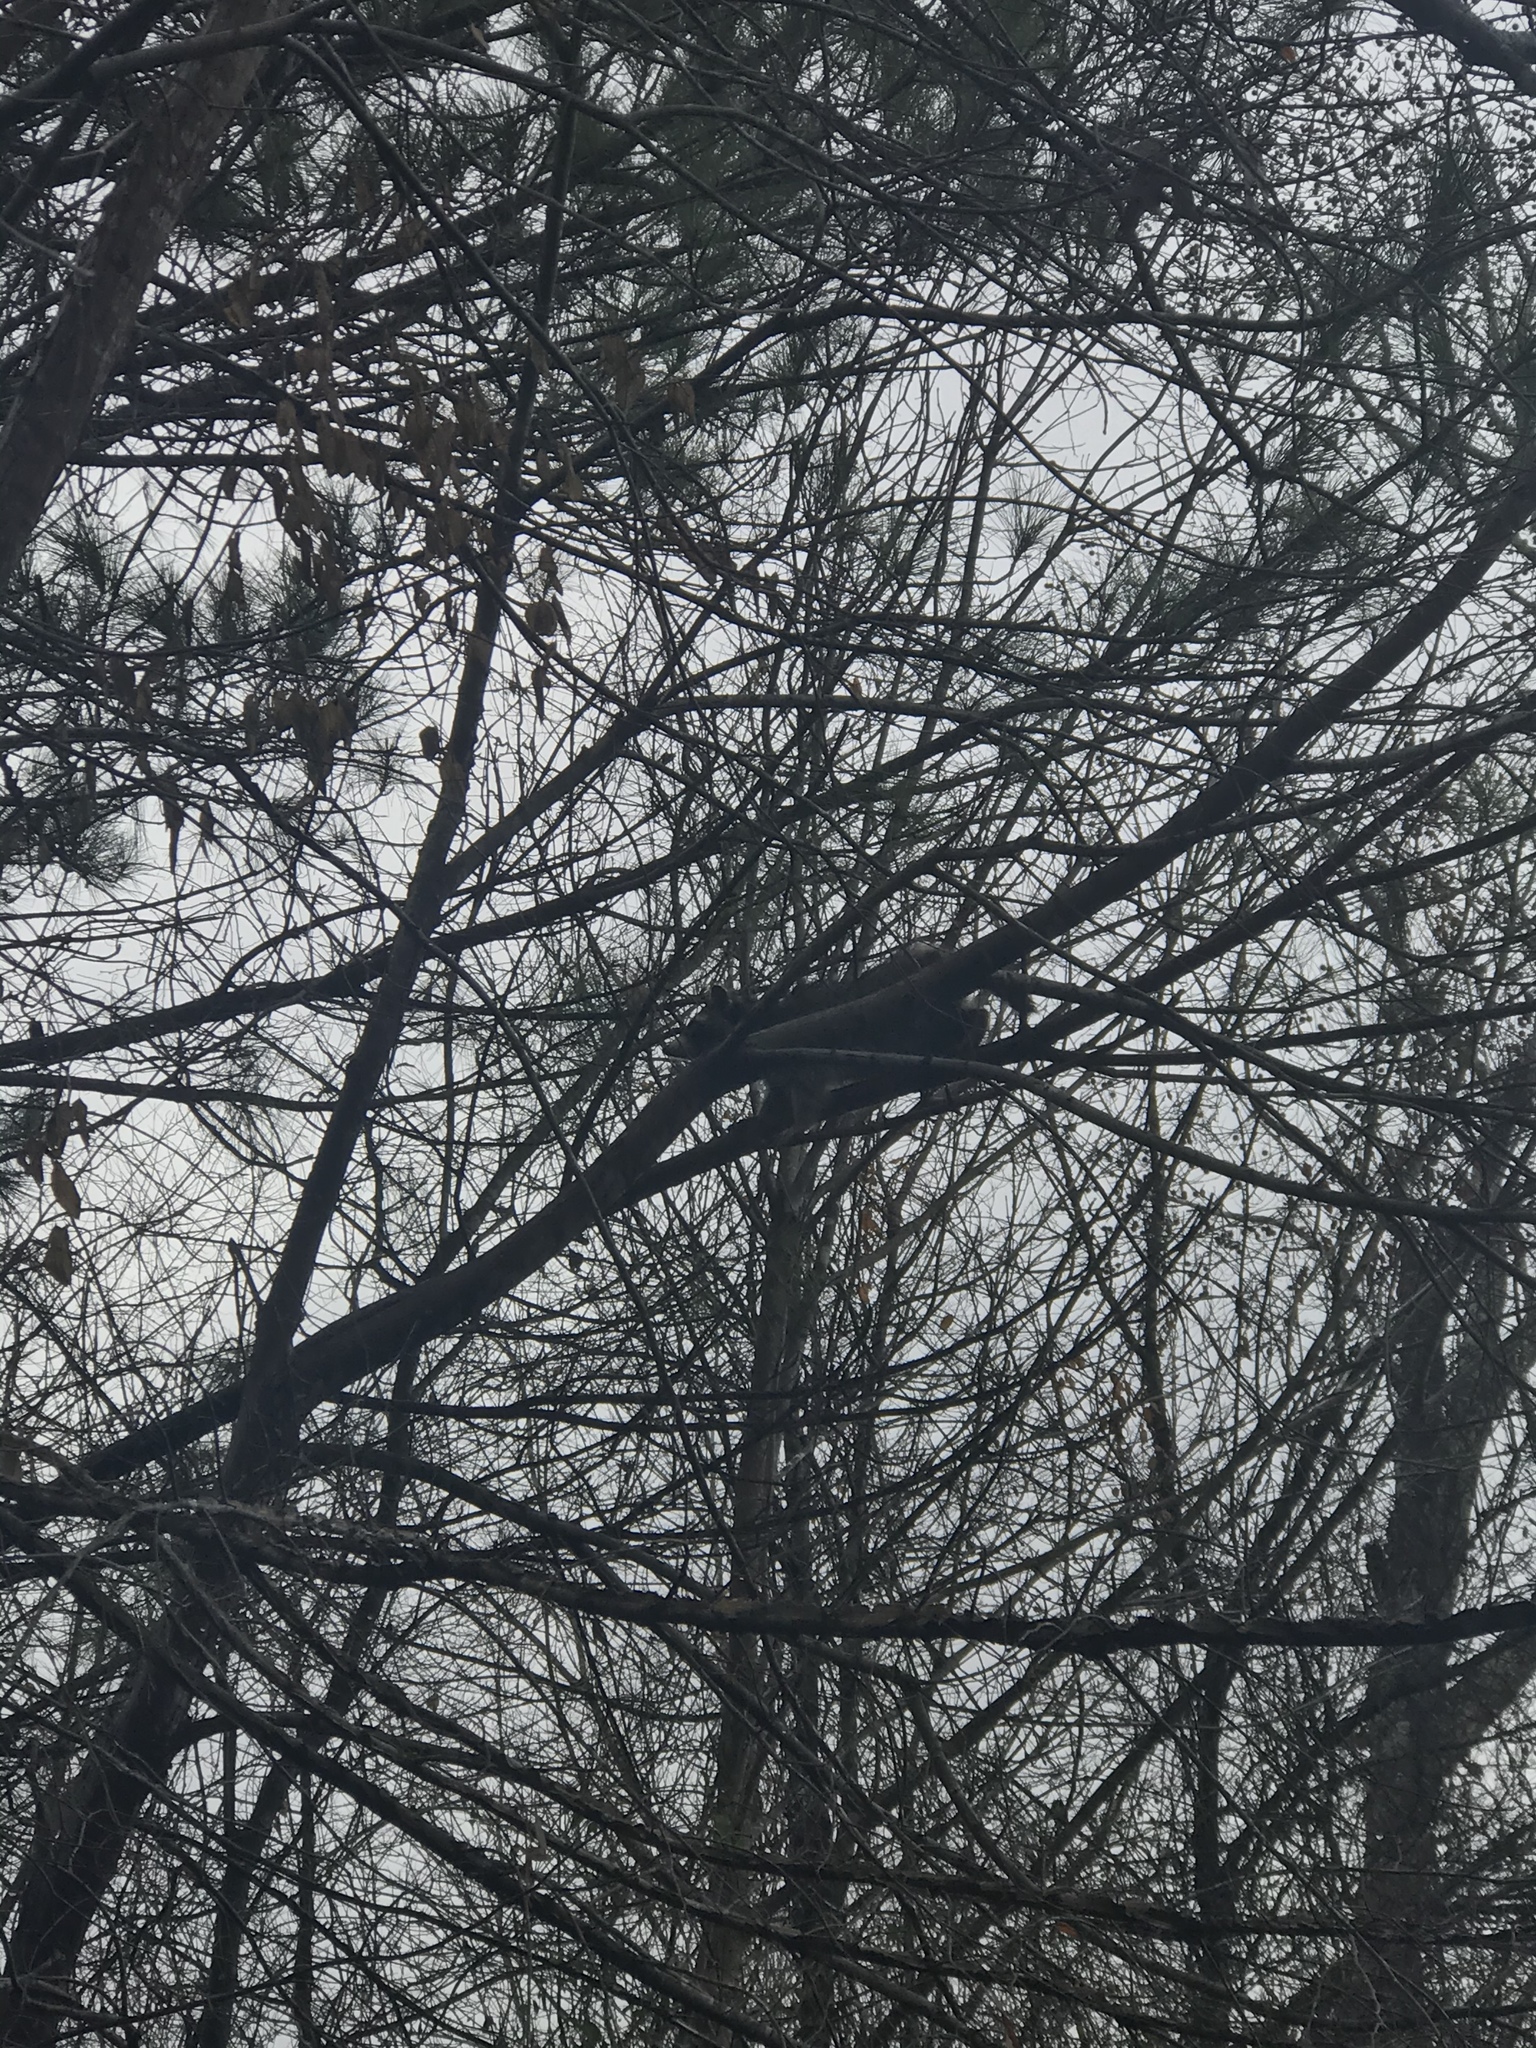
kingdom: Animalia
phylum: Chordata
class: Mammalia
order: Carnivora
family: Procyonidae
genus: Procyon
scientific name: Procyon lotor
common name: Raccoon
